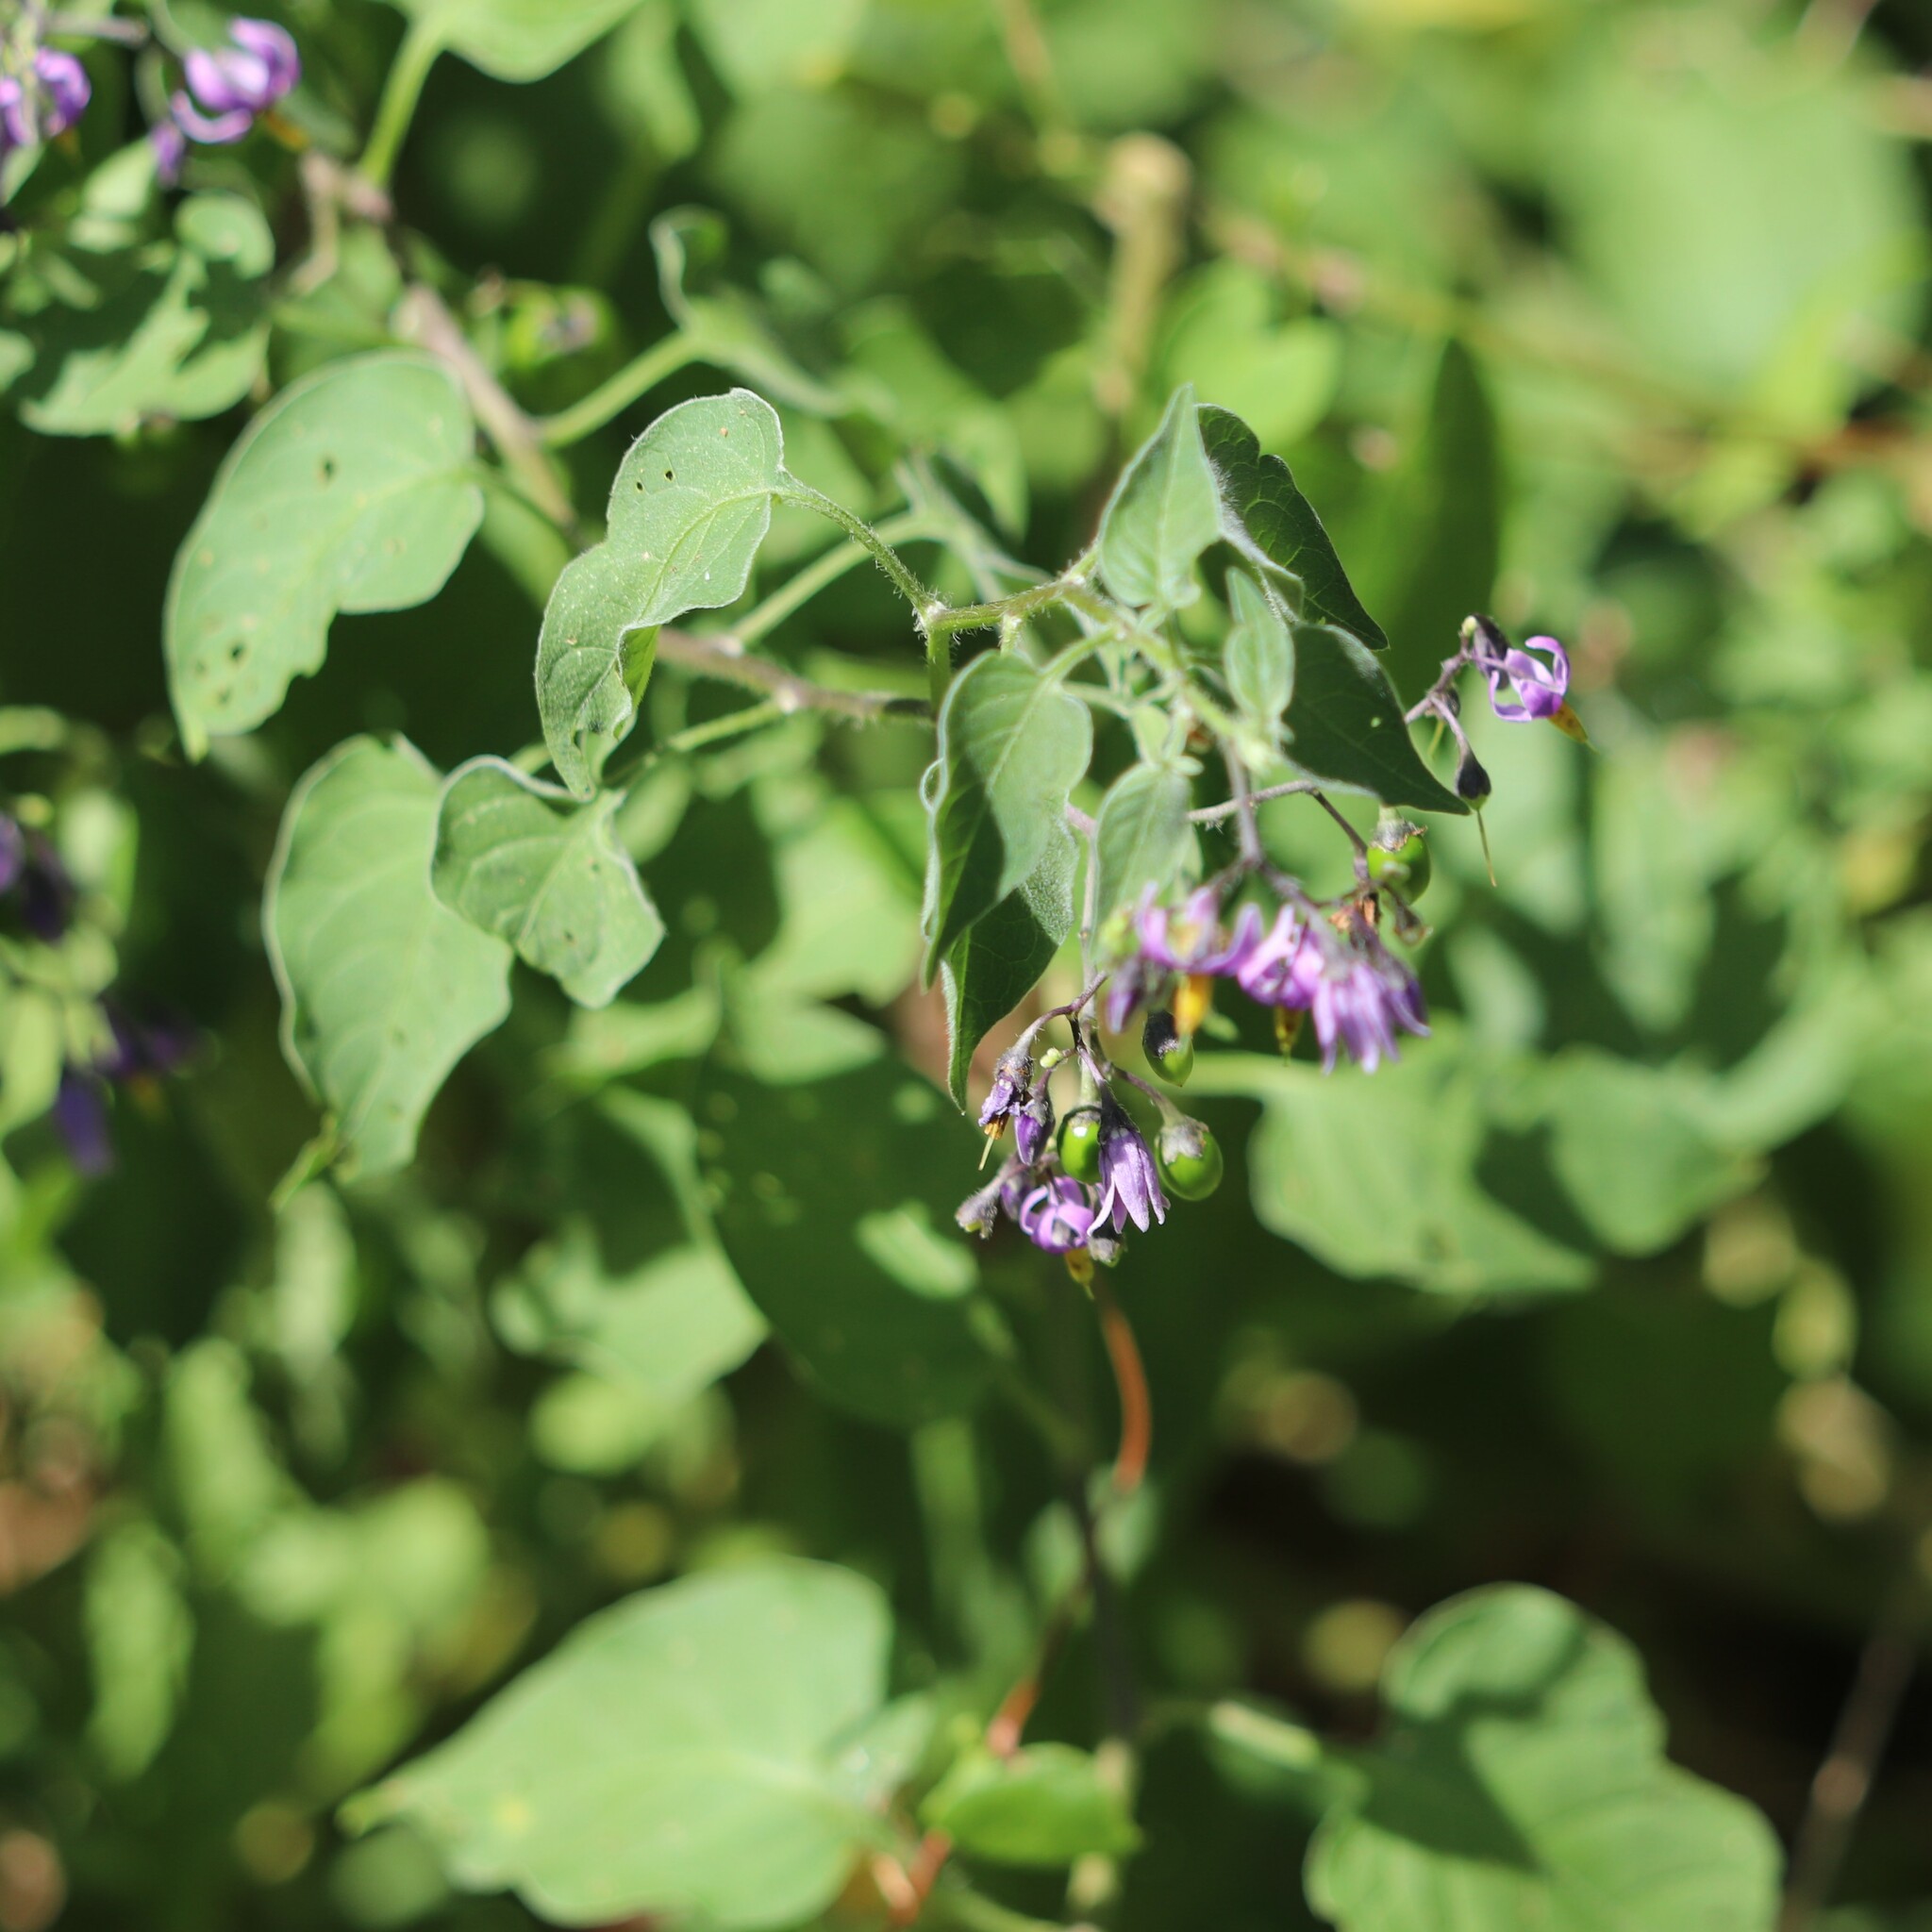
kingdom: Plantae
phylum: Tracheophyta
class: Magnoliopsida
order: Solanales
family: Solanaceae
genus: Solanum
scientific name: Solanum dulcamara
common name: Climbing nightshade
